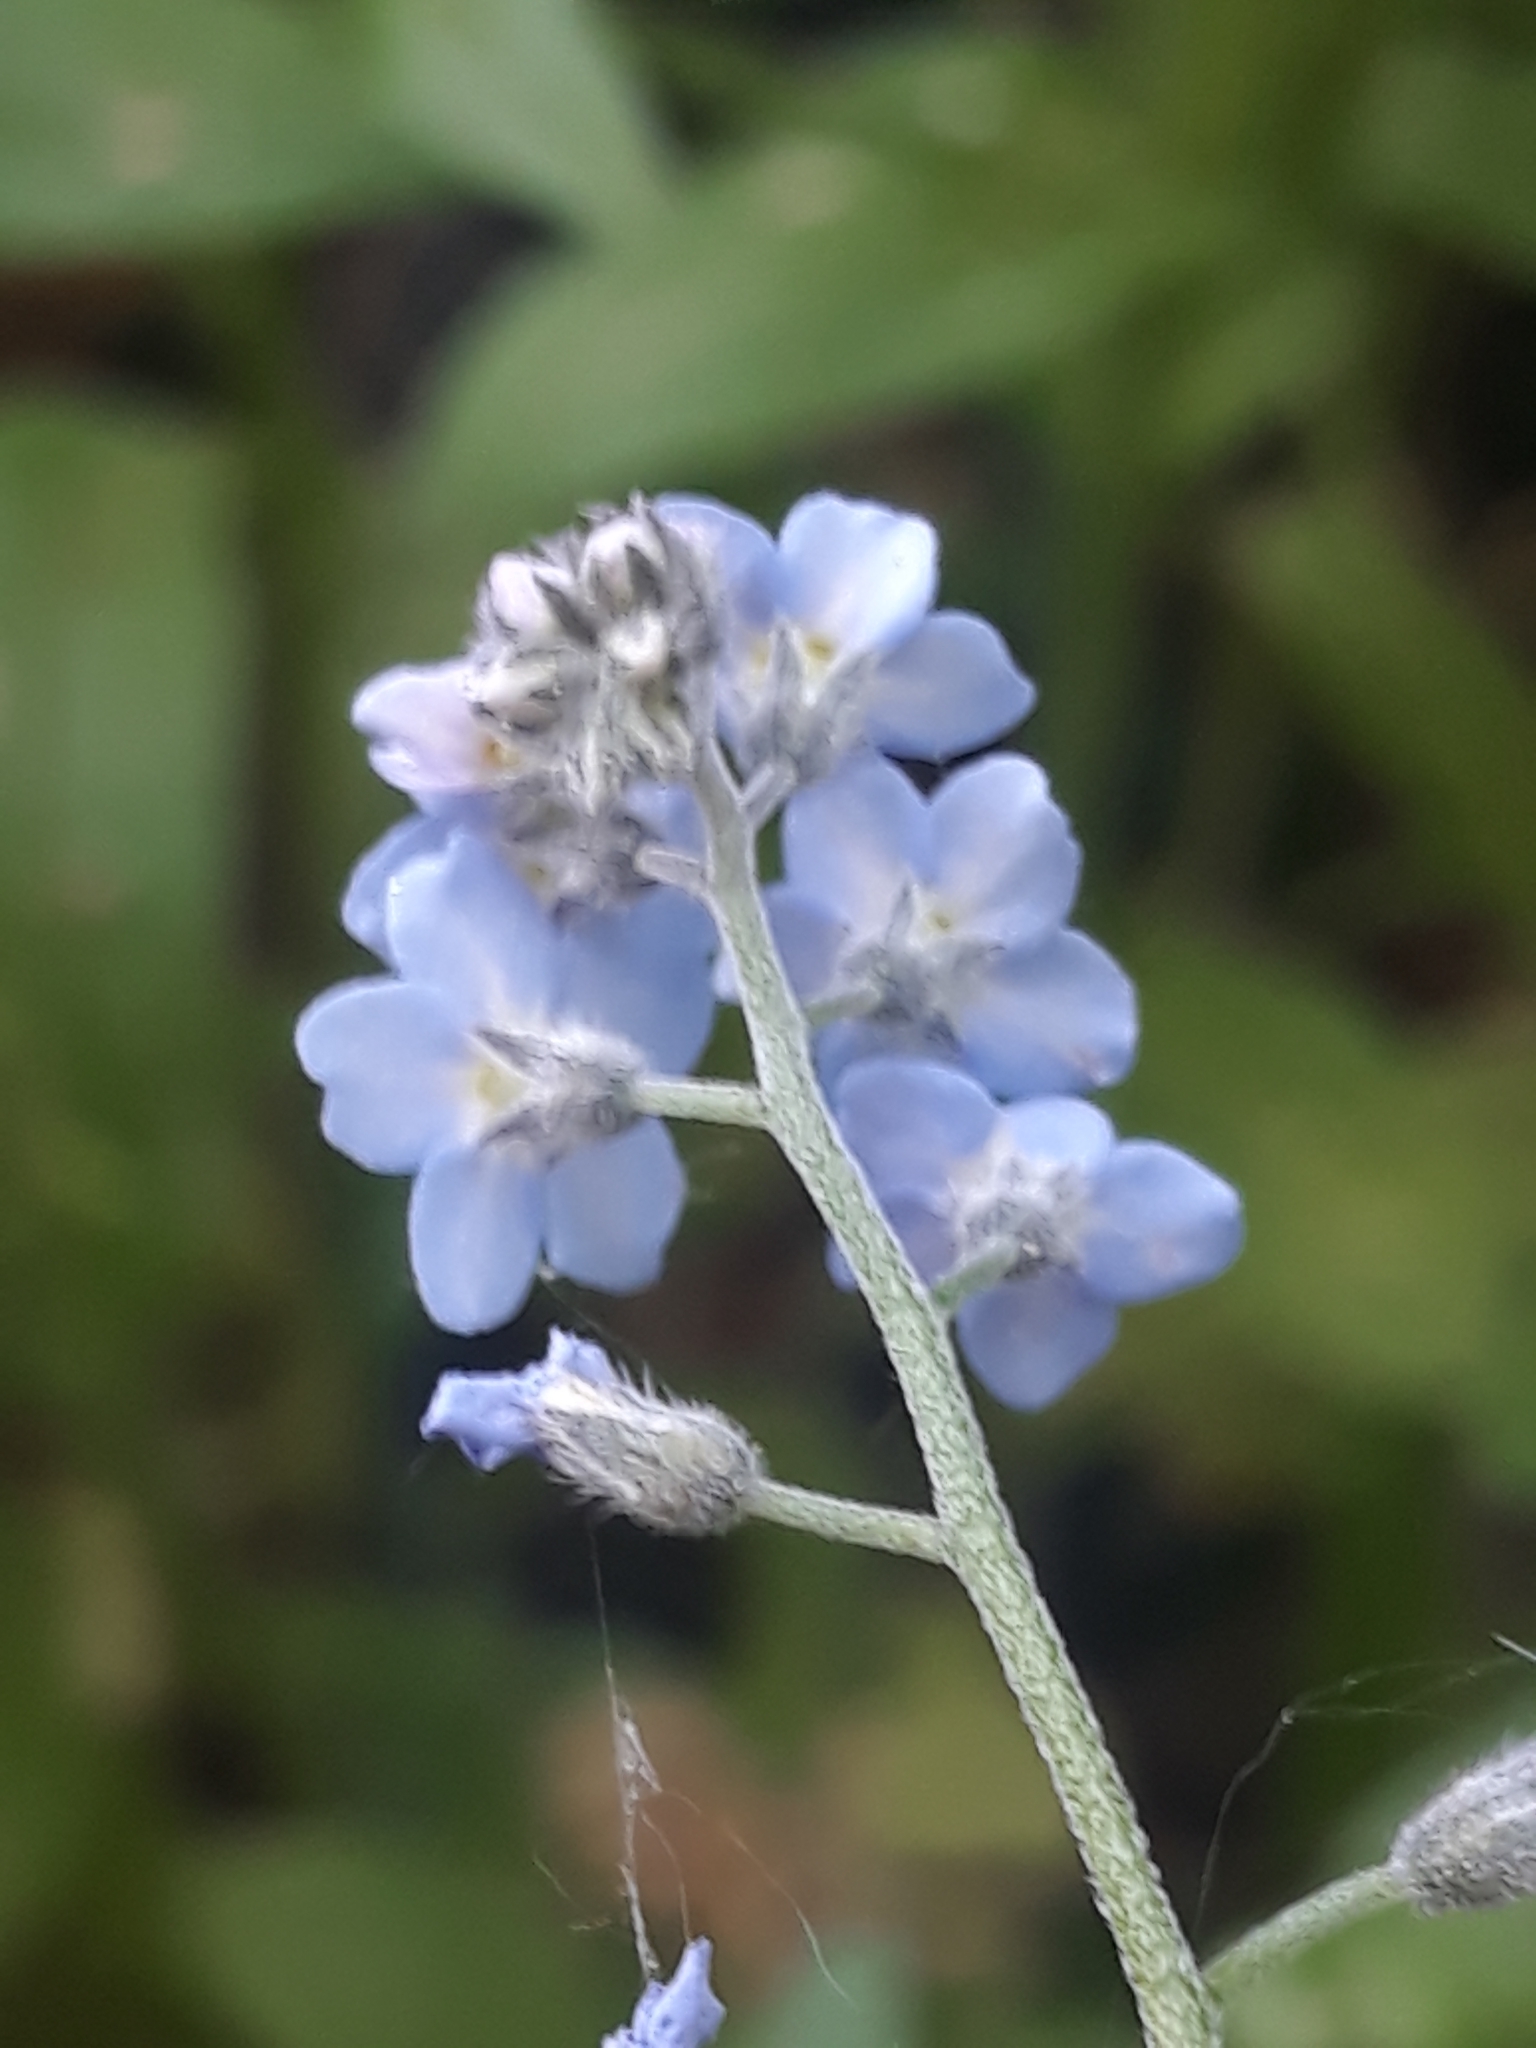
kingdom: Plantae
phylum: Tracheophyta
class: Magnoliopsida
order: Boraginales
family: Boraginaceae
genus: Myosotis
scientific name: Myosotis sylvatica
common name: Wood forget-me-not
